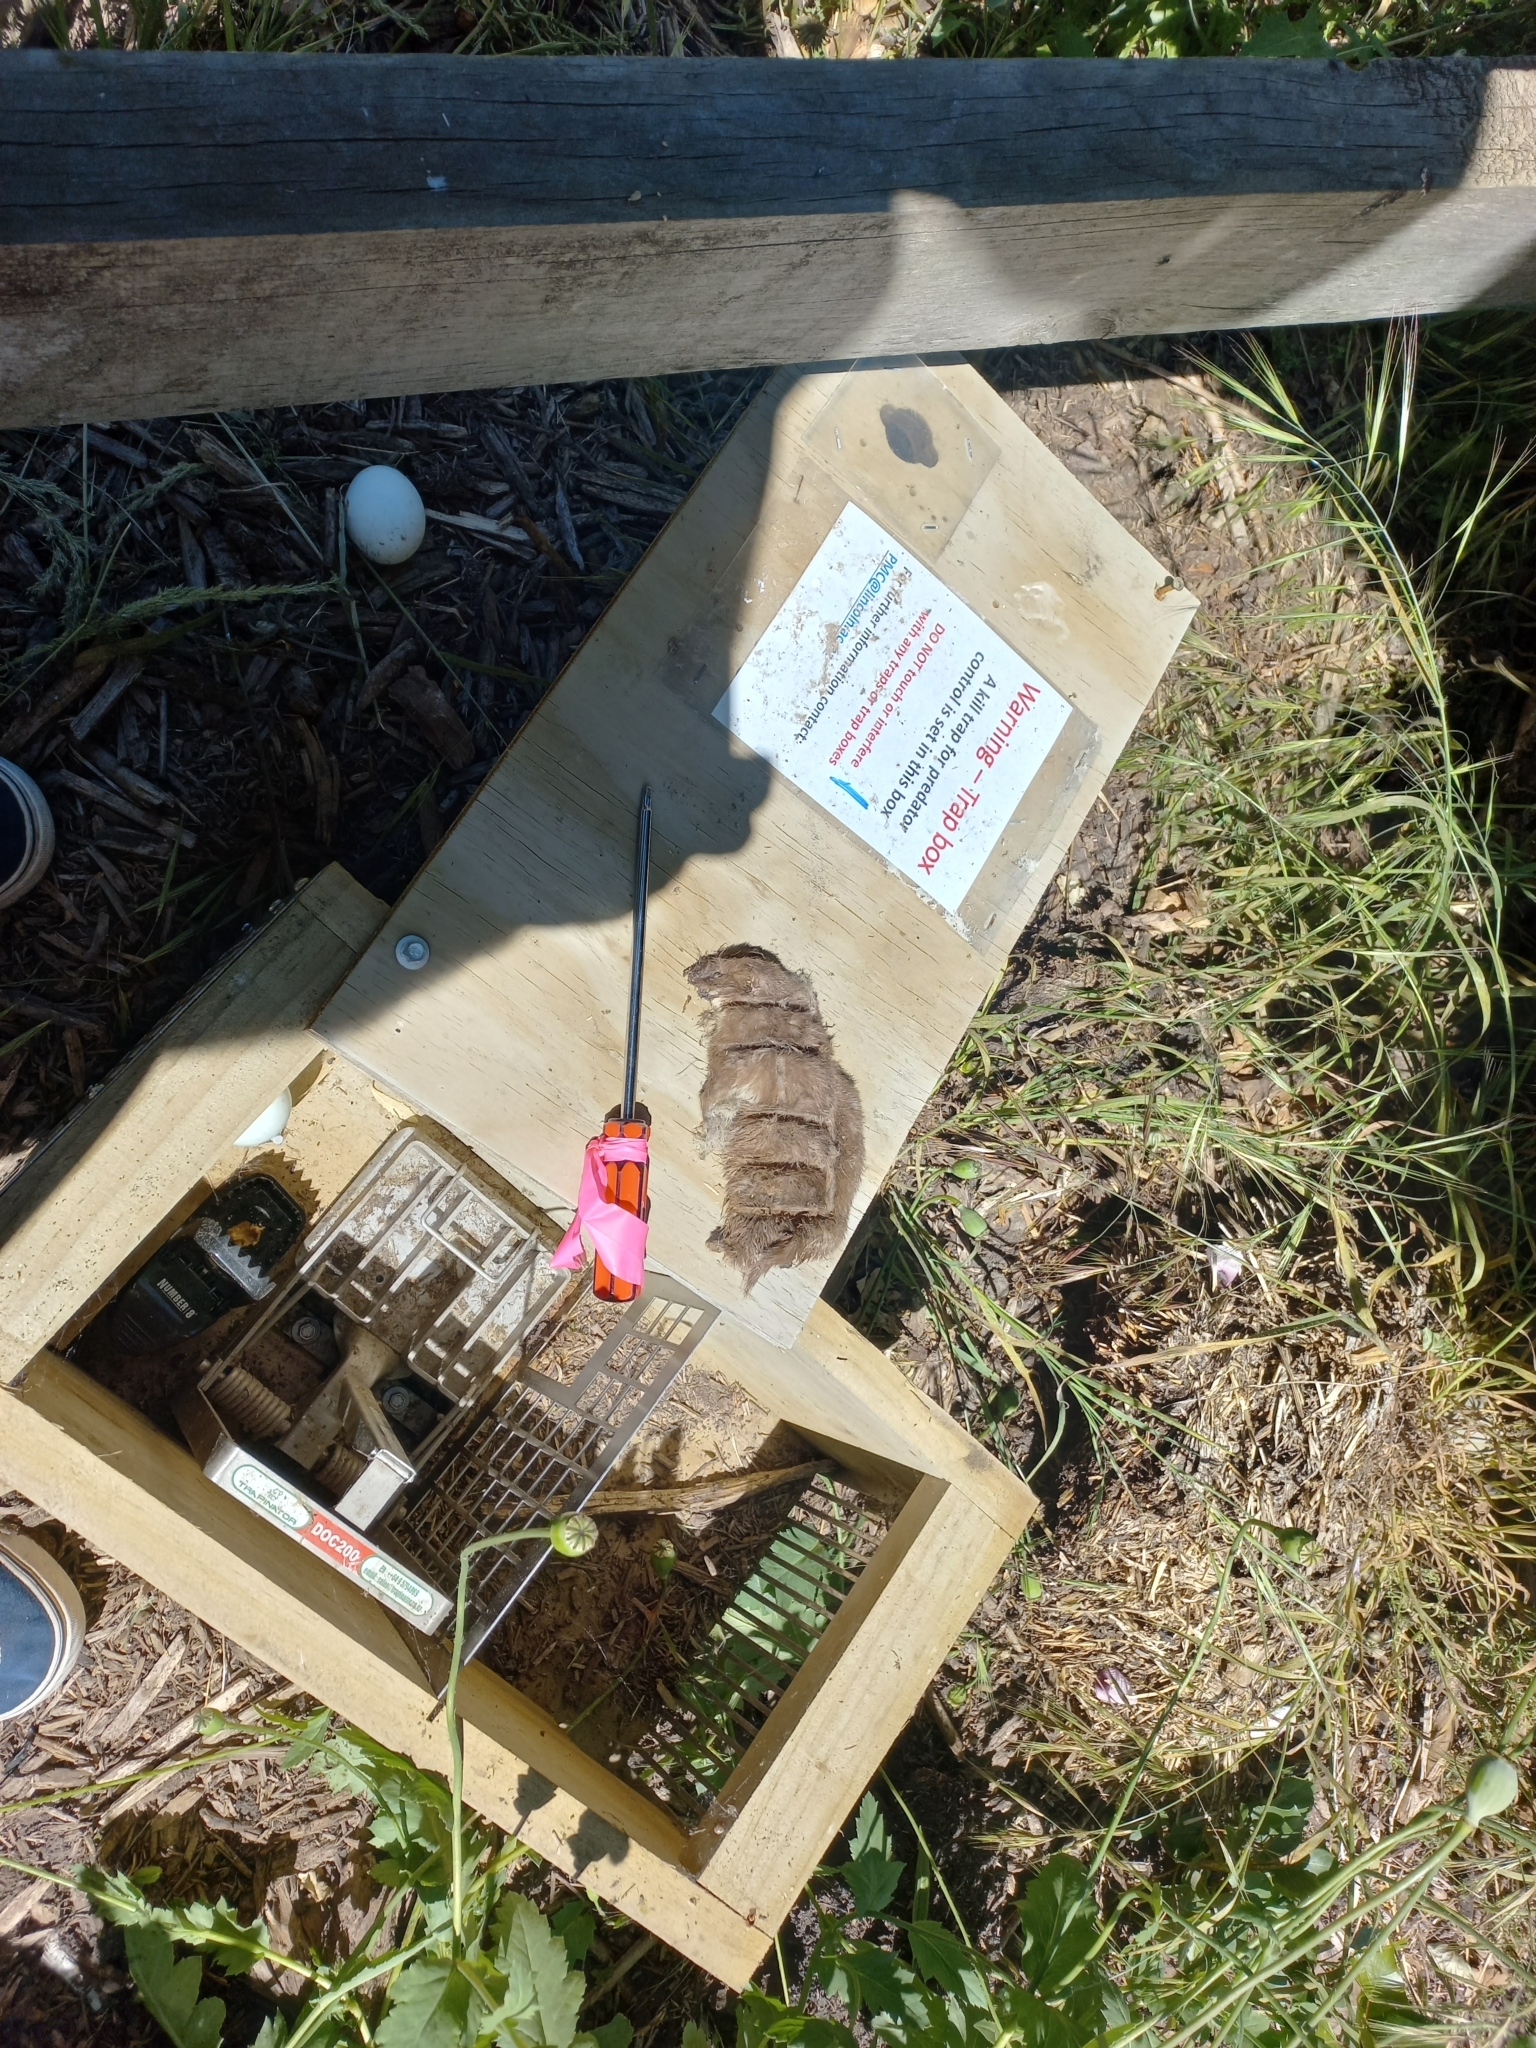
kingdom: Animalia
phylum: Chordata
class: Mammalia
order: Carnivora
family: Mustelidae
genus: Mustela
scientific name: Mustela nivalis
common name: Least weasel
